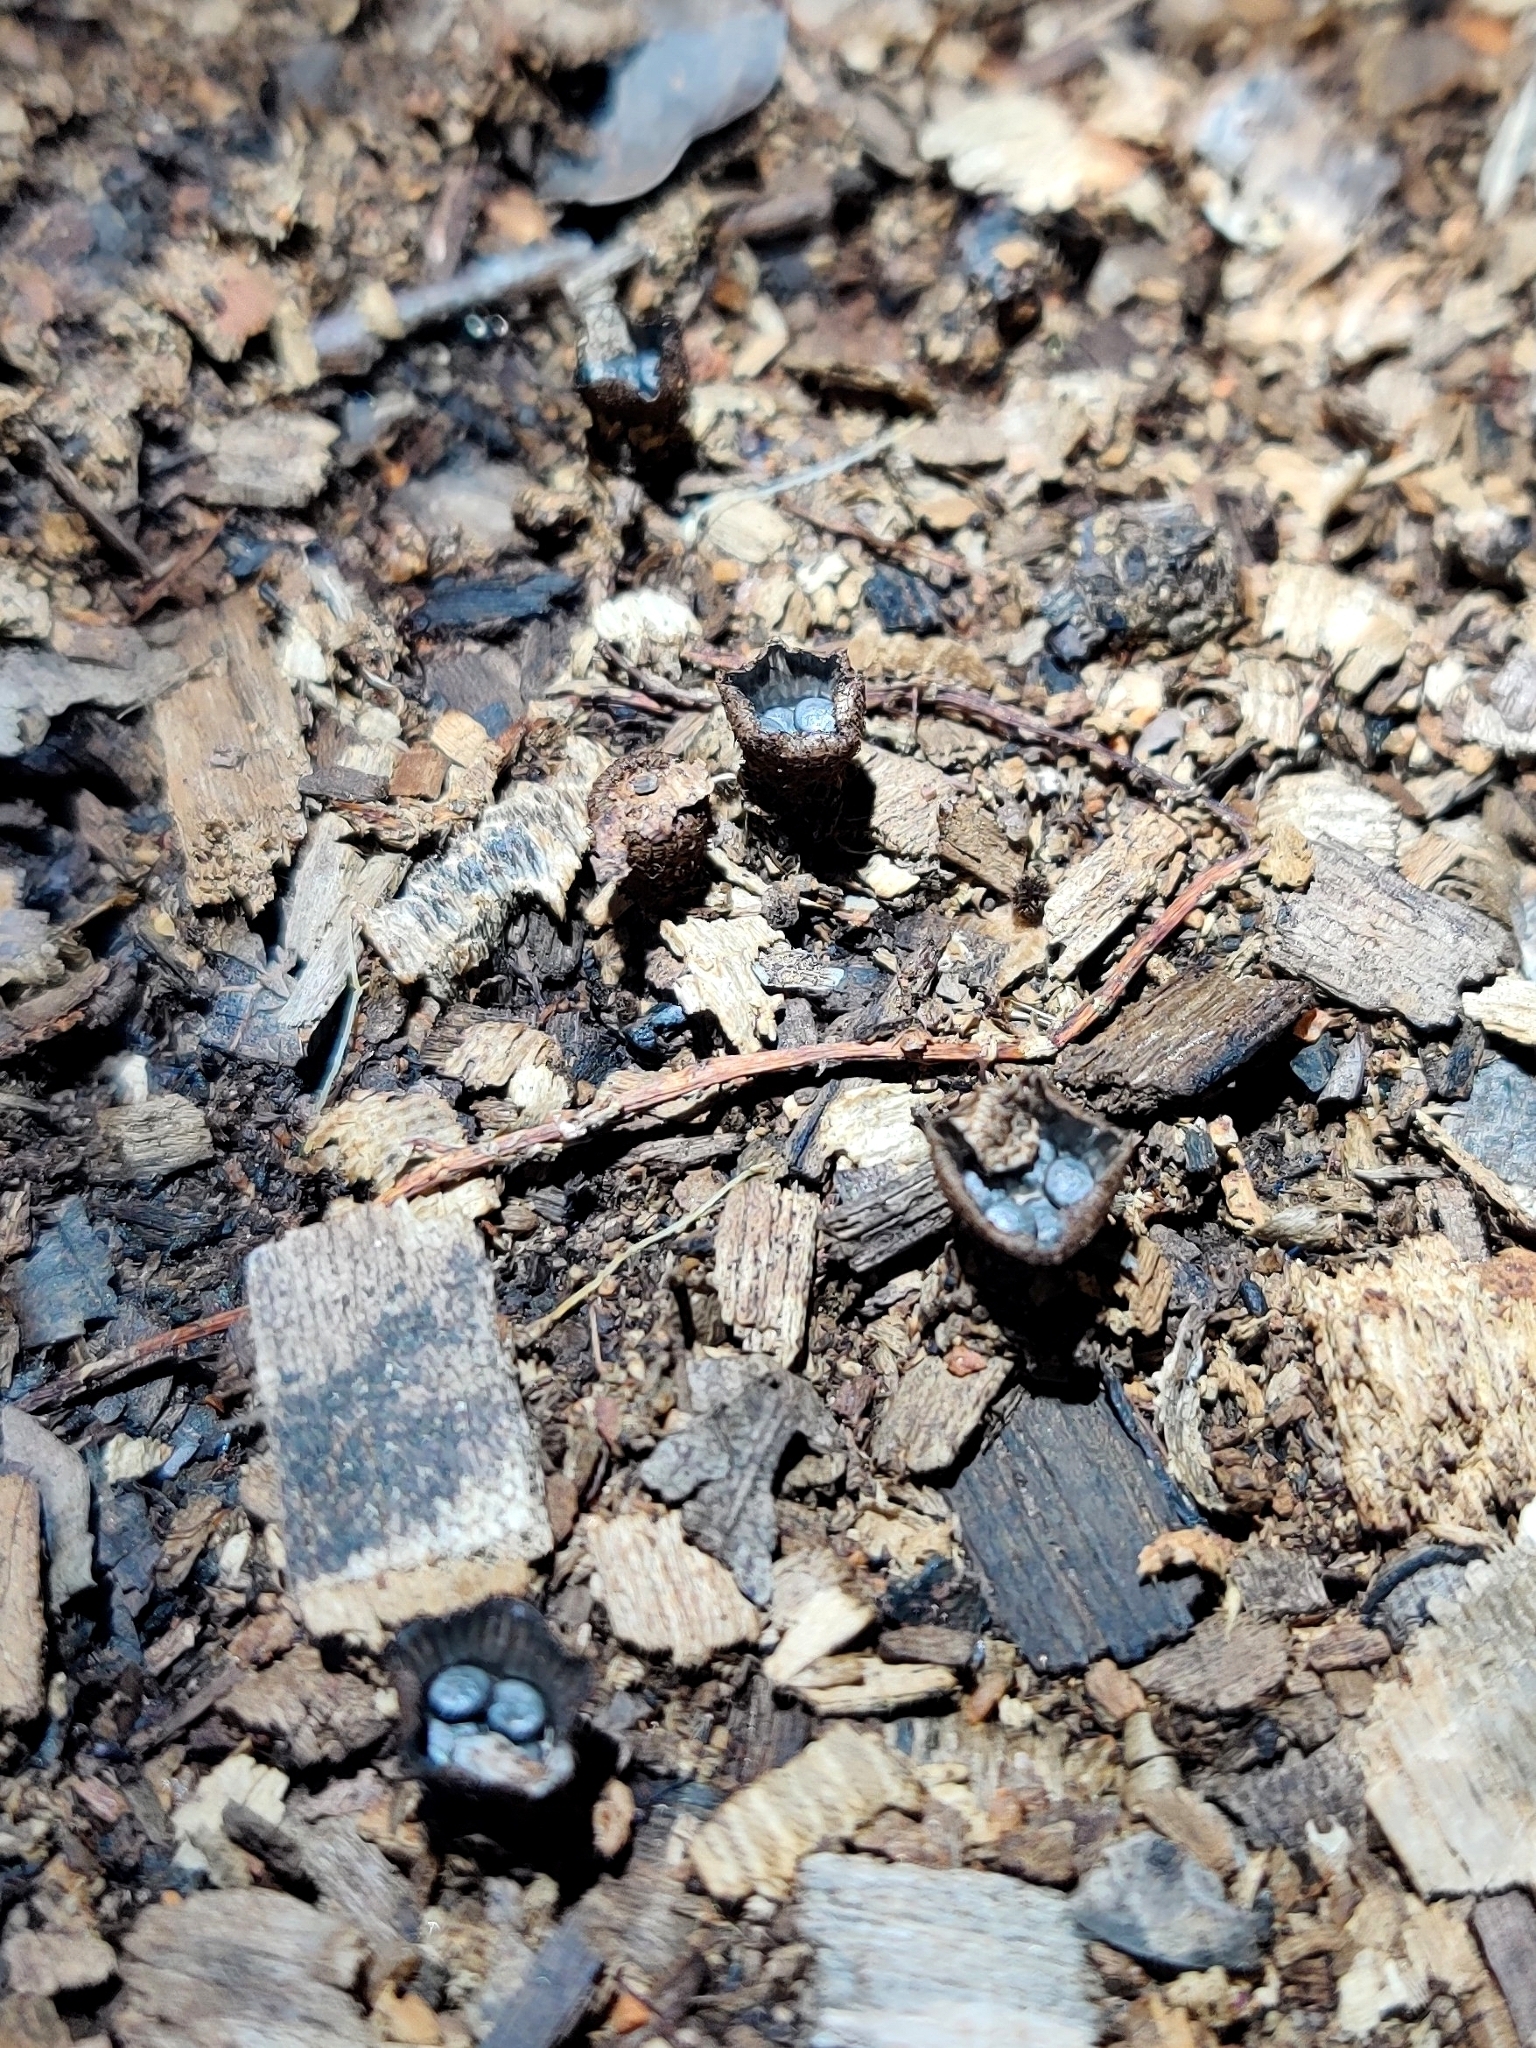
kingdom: Fungi
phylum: Basidiomycota
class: Agaricomycetes
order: Agaricales
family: Agaricaceae
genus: Cyathus
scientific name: Cyathus striatus
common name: Fluted bird's nest
